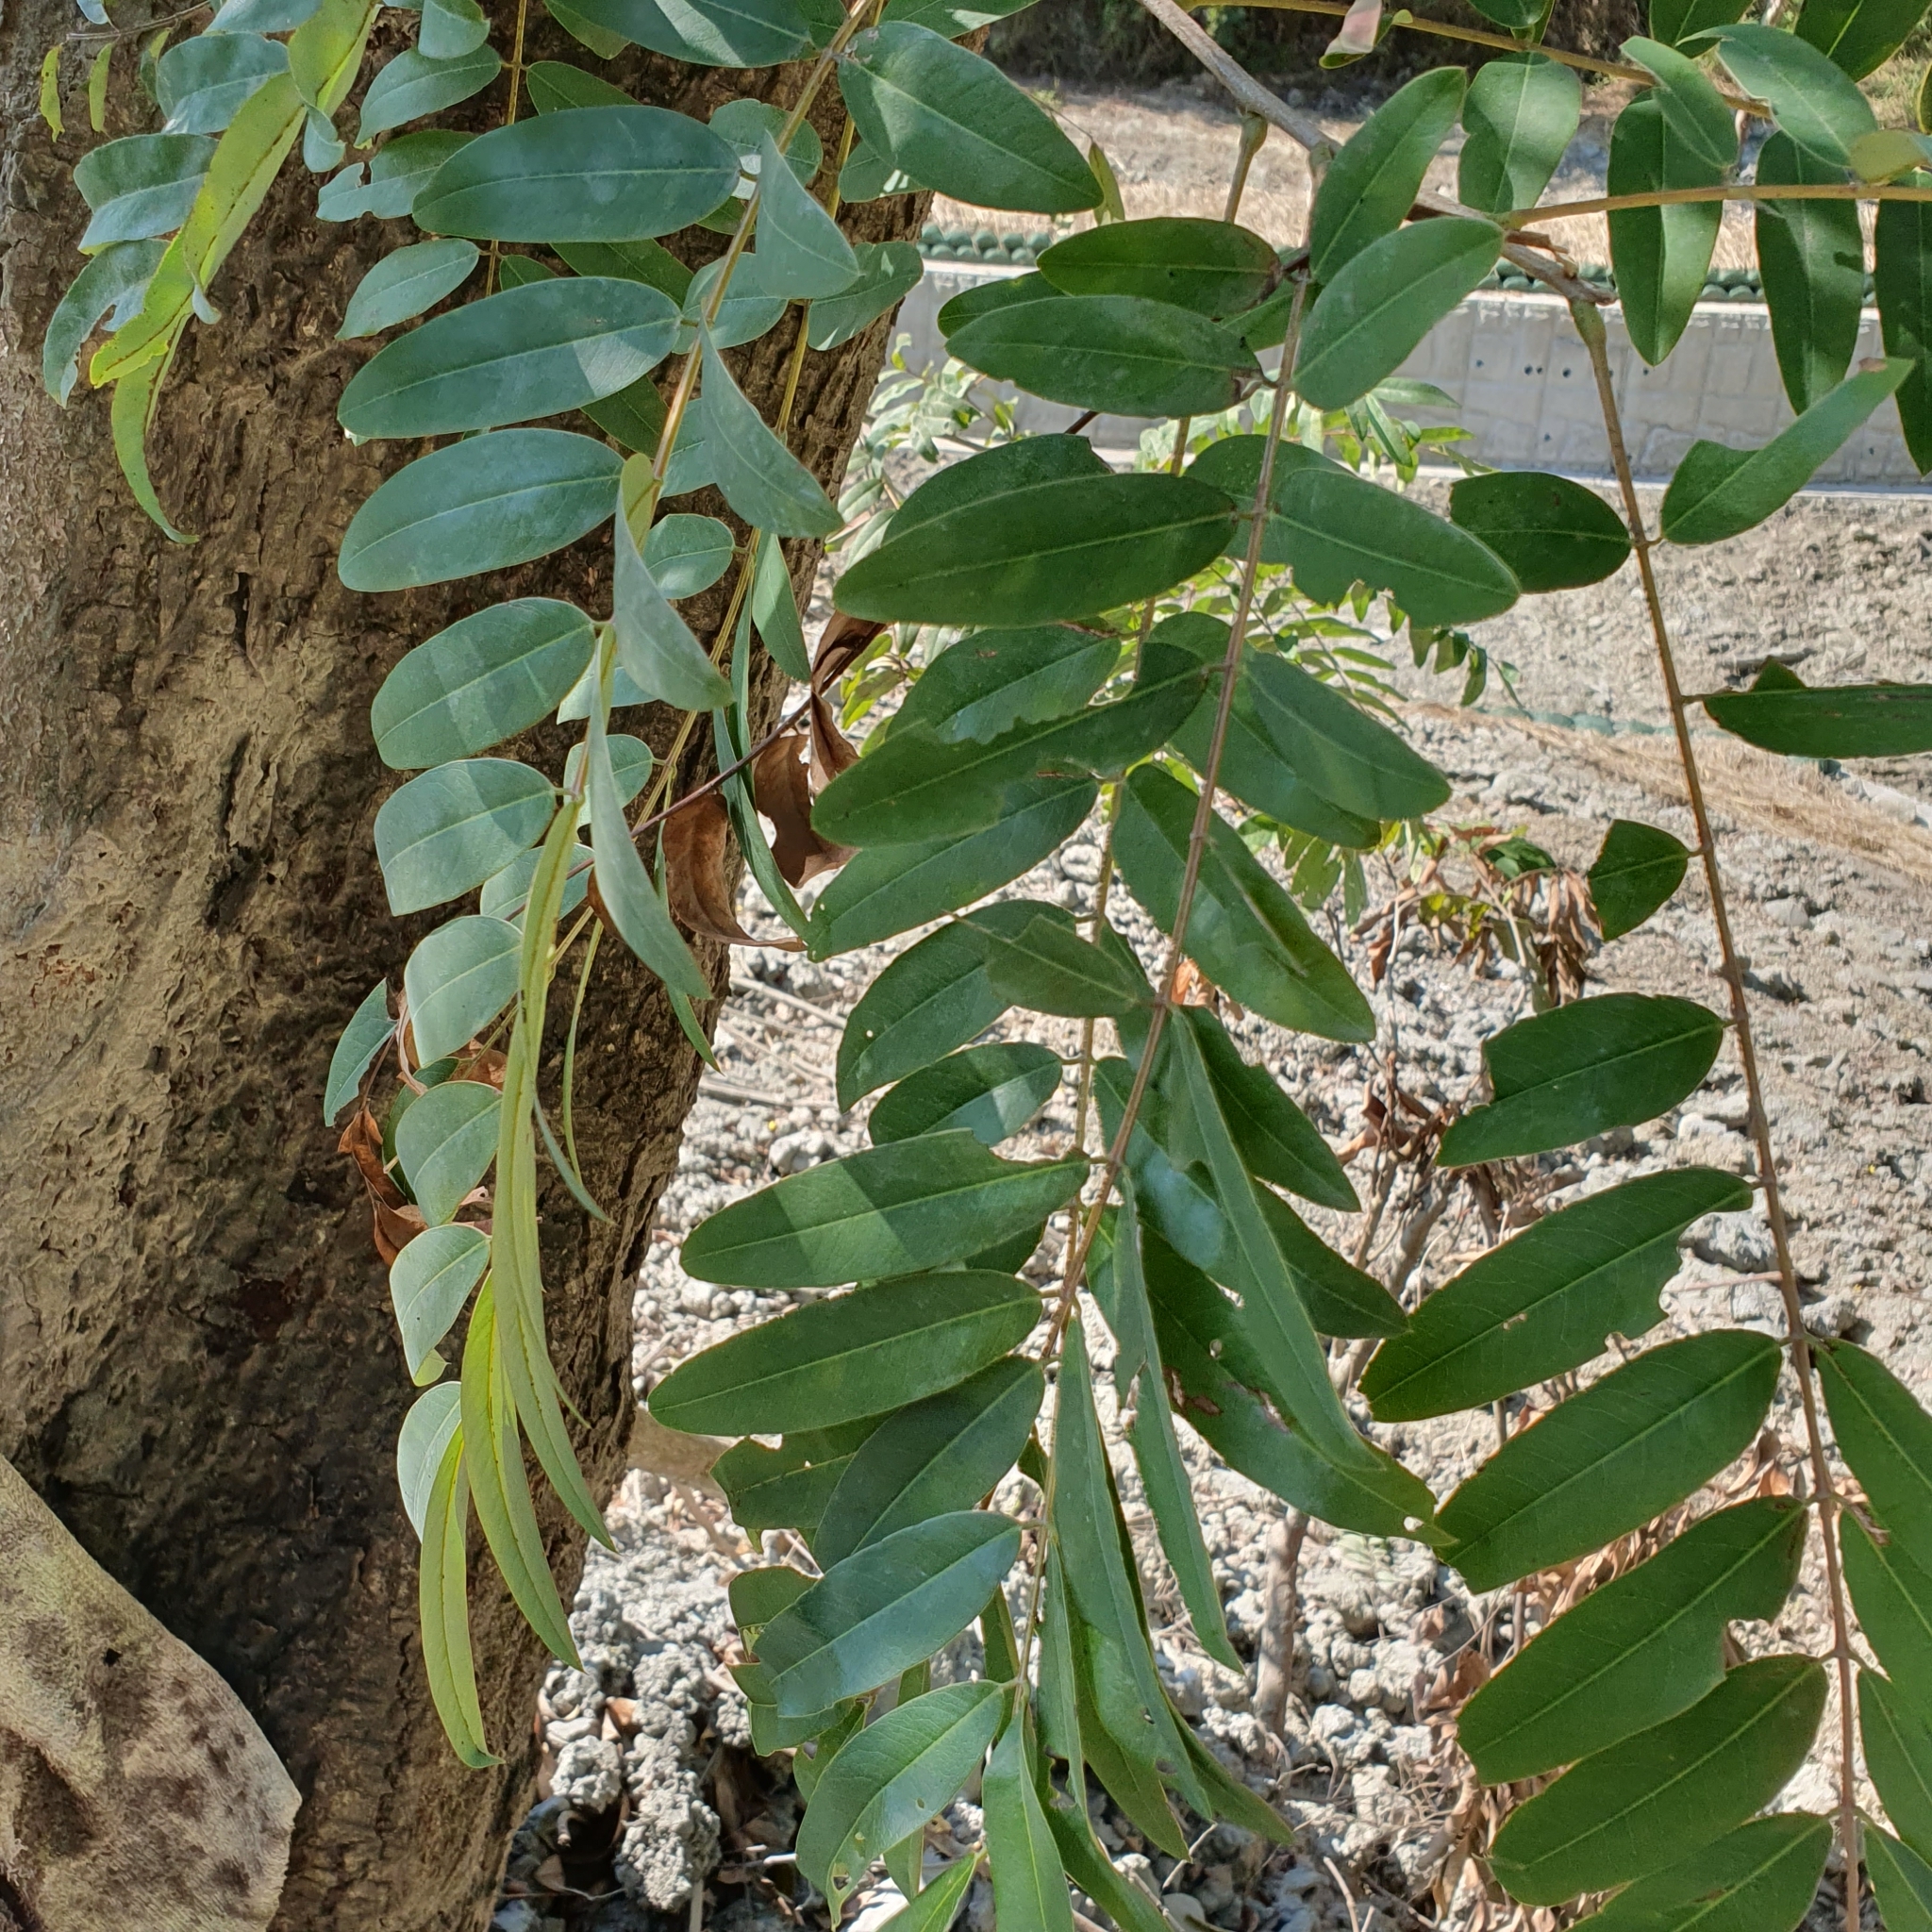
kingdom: Plantae
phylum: Tracheophyta
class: Magnoliopsida
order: Fabales
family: Fabaceae
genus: Senna
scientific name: Senna siamea
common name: Siamese cassia
